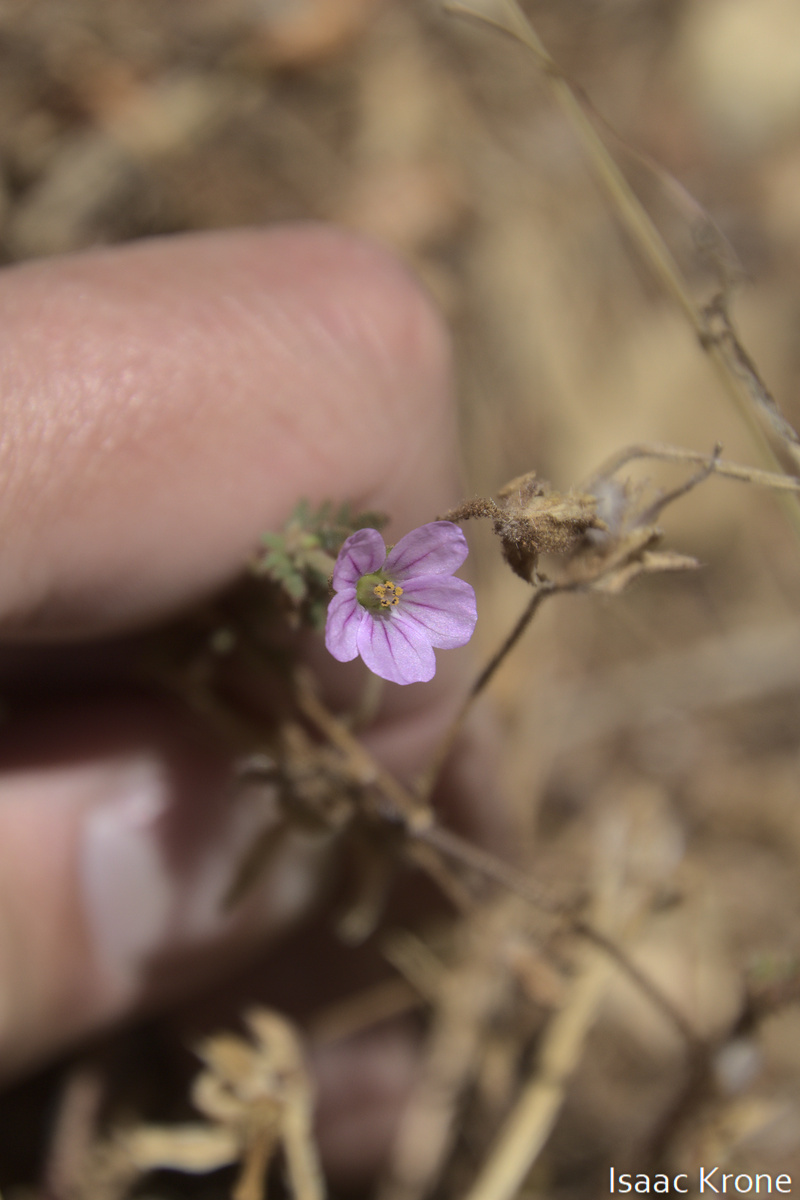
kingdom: Plantae
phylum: Tracheophyta
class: Magnoliopsida
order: Geraniales
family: Geraniaceae
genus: Erodium
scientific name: Erodium botrys
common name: Mediterranean stork's-bill
